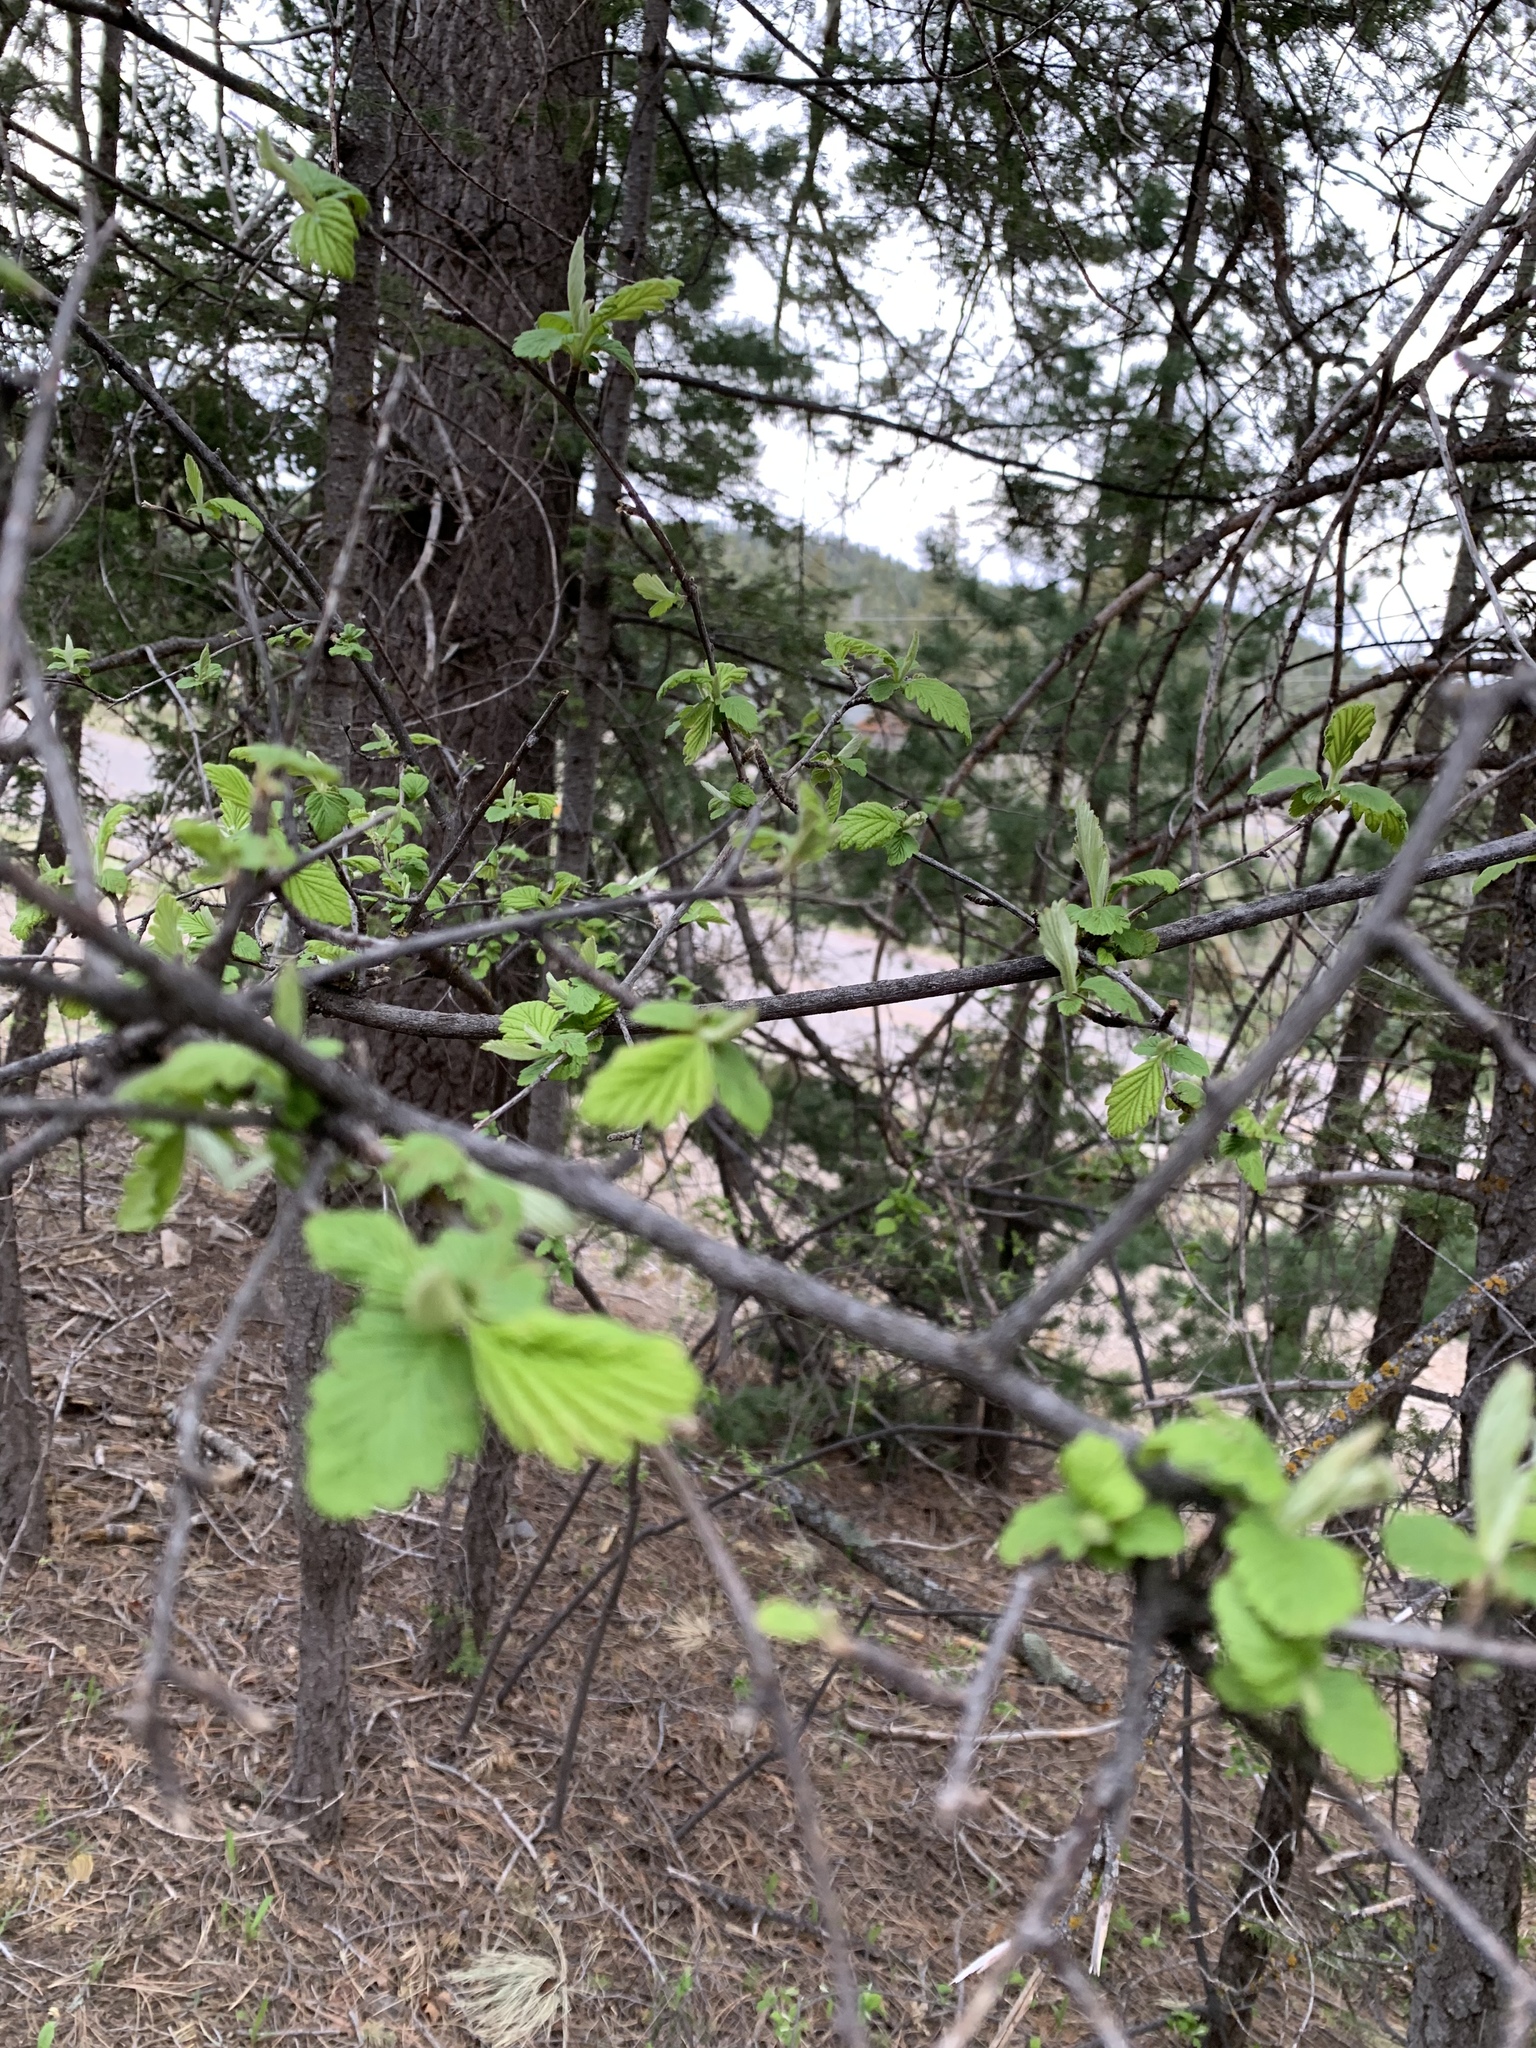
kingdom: Plantae
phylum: Tracheophyta
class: Magnoliopsida
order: Rosales
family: Rosaceae
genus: Holodiscus
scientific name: Holodiscus discolor
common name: Oceanspray
